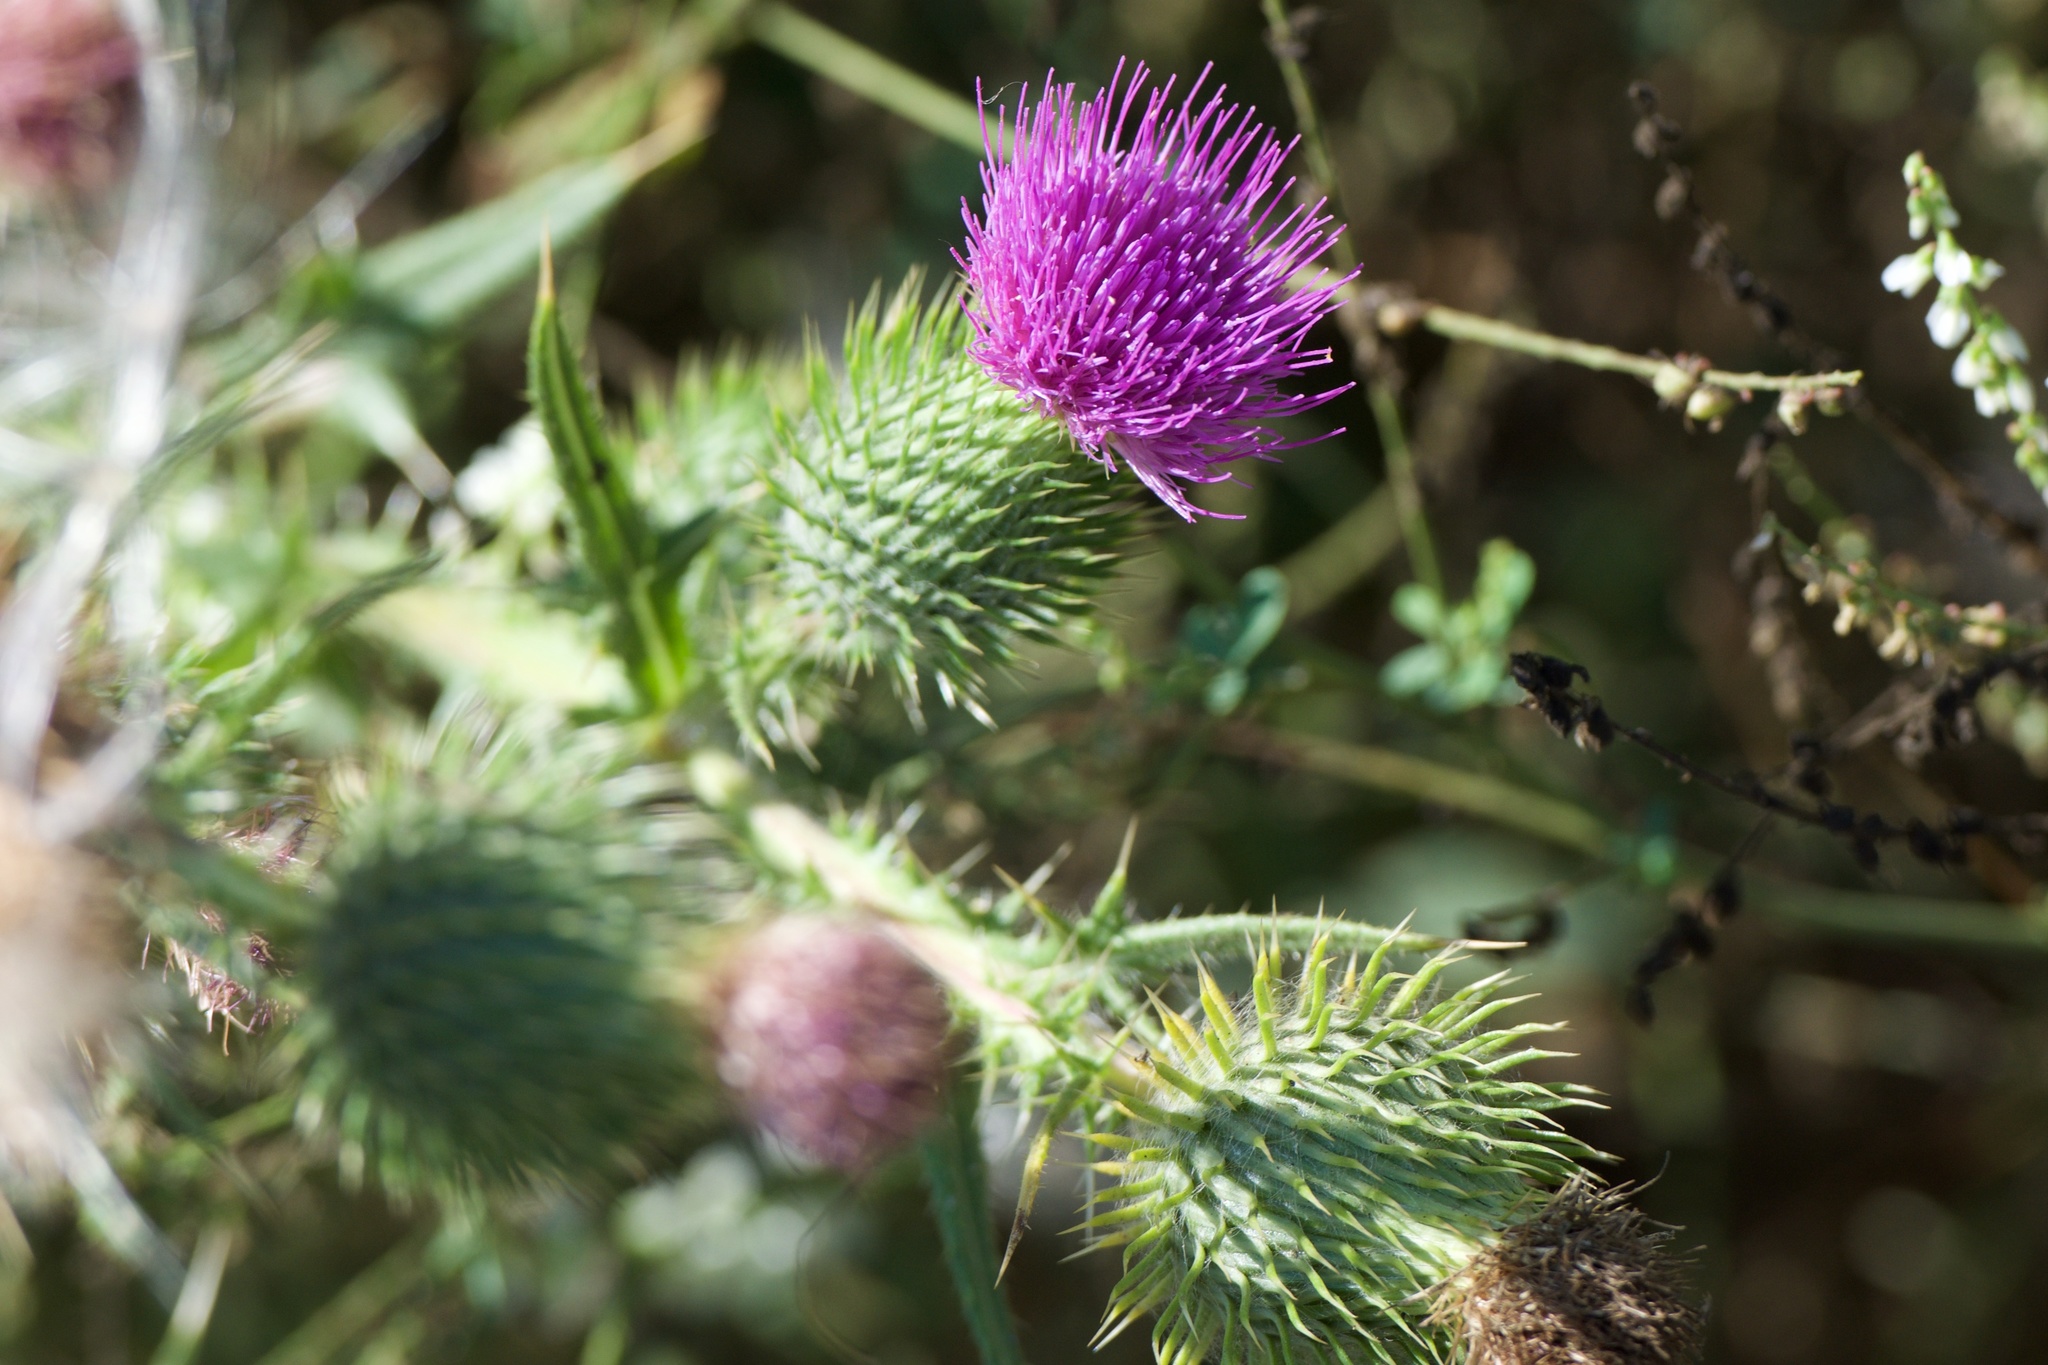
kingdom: Plantae
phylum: Tracheophyta
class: Magnoliopsida
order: Asterales
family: Asteraceae
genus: Cirsium
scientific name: Cirsium vulgare
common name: Bull thistle
